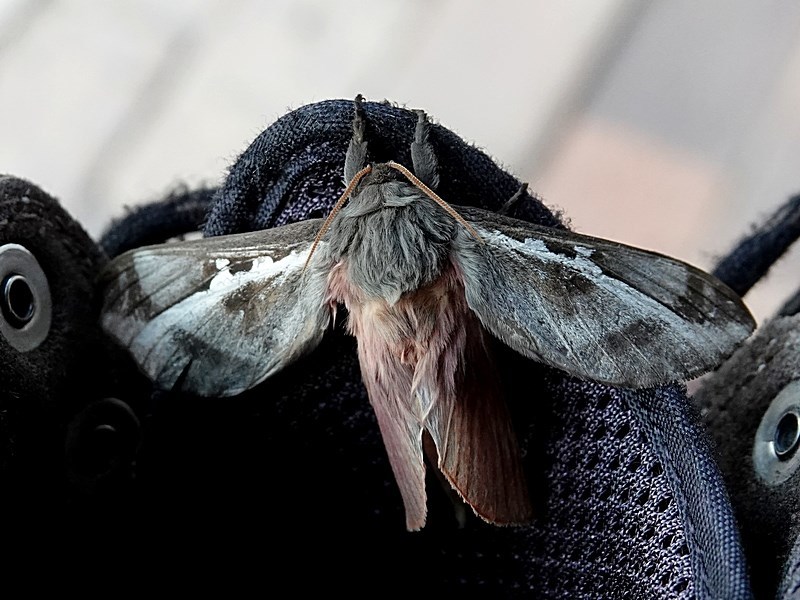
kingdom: Animalia
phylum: Arthropoda
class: Insecta
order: Lepidoptera
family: Hepialidae
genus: Oxycanus
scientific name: Oxycanus dirempta
